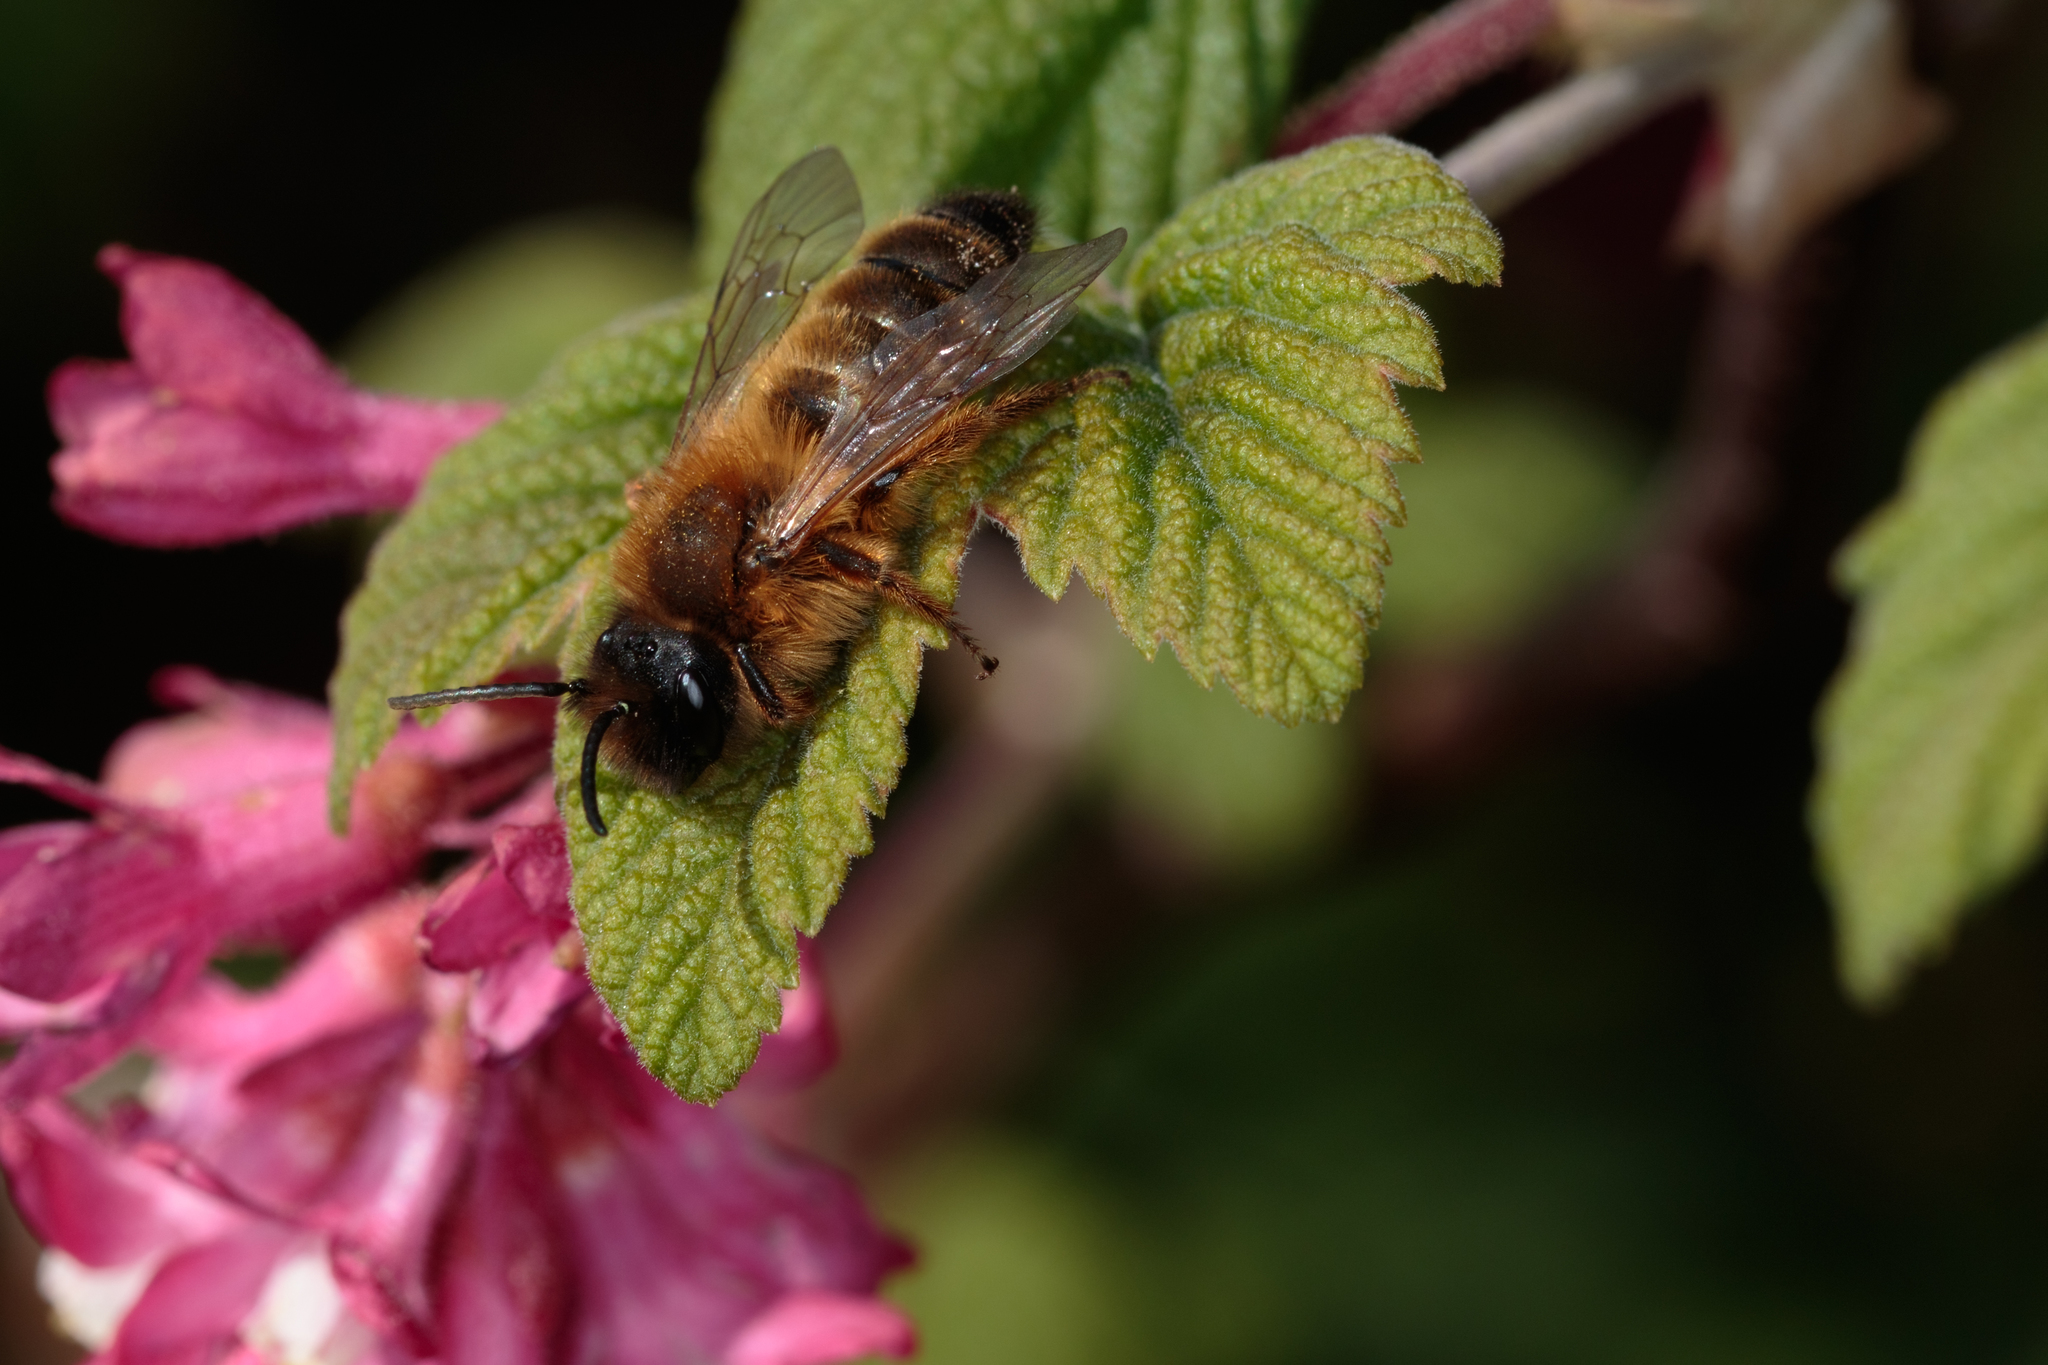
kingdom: Animalia
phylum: Arthropoda
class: Insecta
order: Hymenoptera
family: Andrenidae
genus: Andrena
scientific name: Andrena nigroaenea
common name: Buffish mining bee
